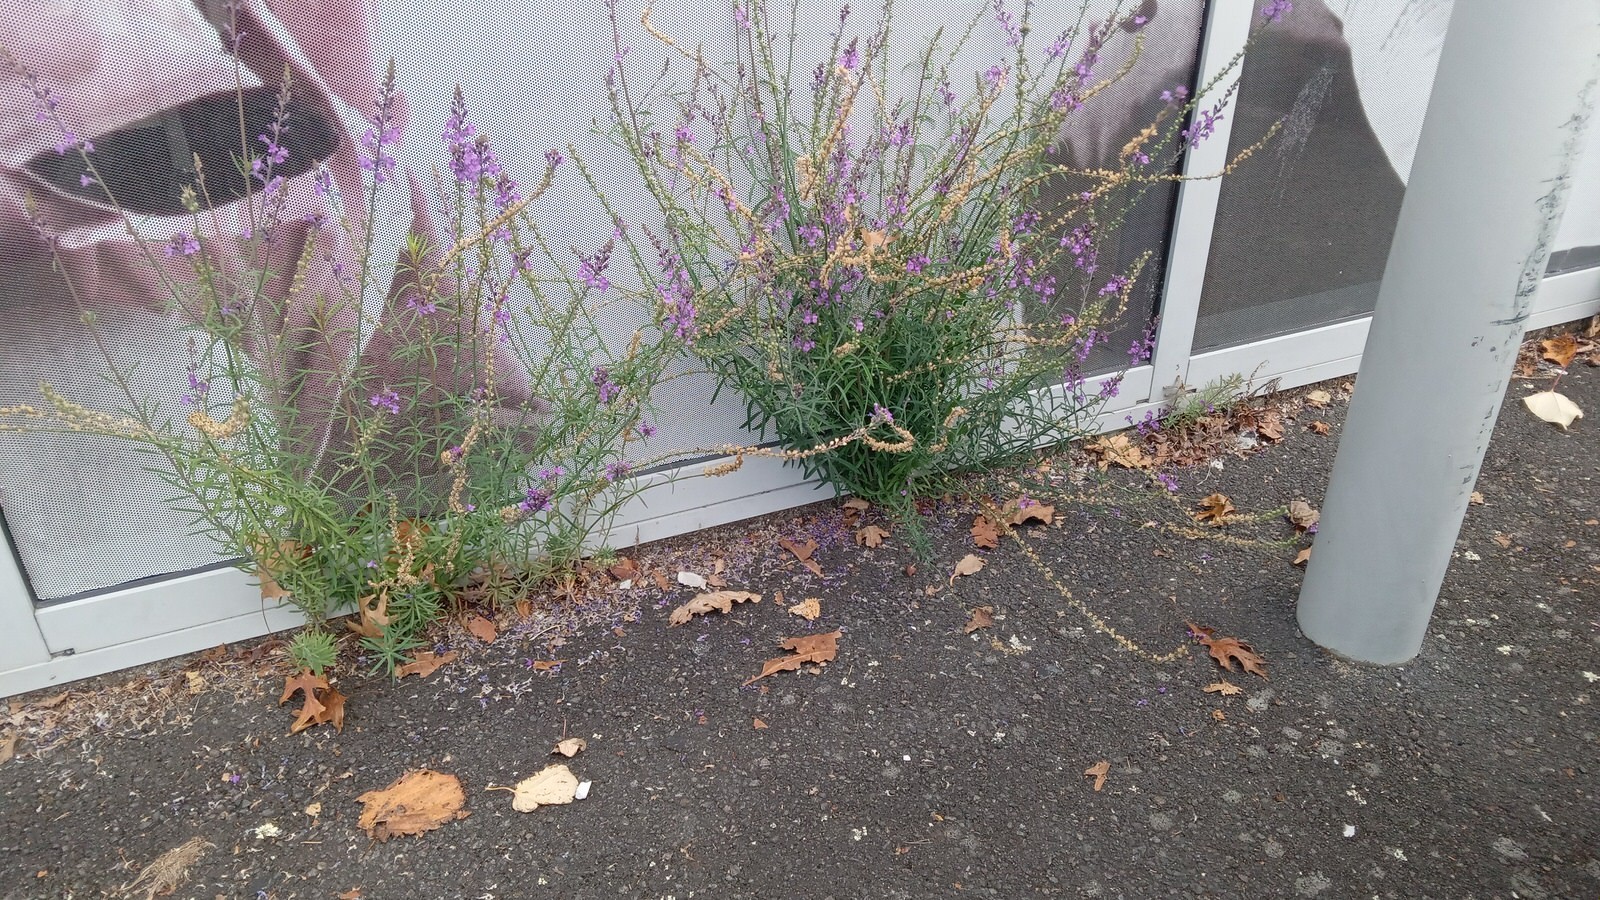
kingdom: Plantae
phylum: Tracheophyta
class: Magnoliopsida
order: Lamiales
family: Plantaginaceae
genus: Linaria
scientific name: Linaria purpurea
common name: Purple toadflax
